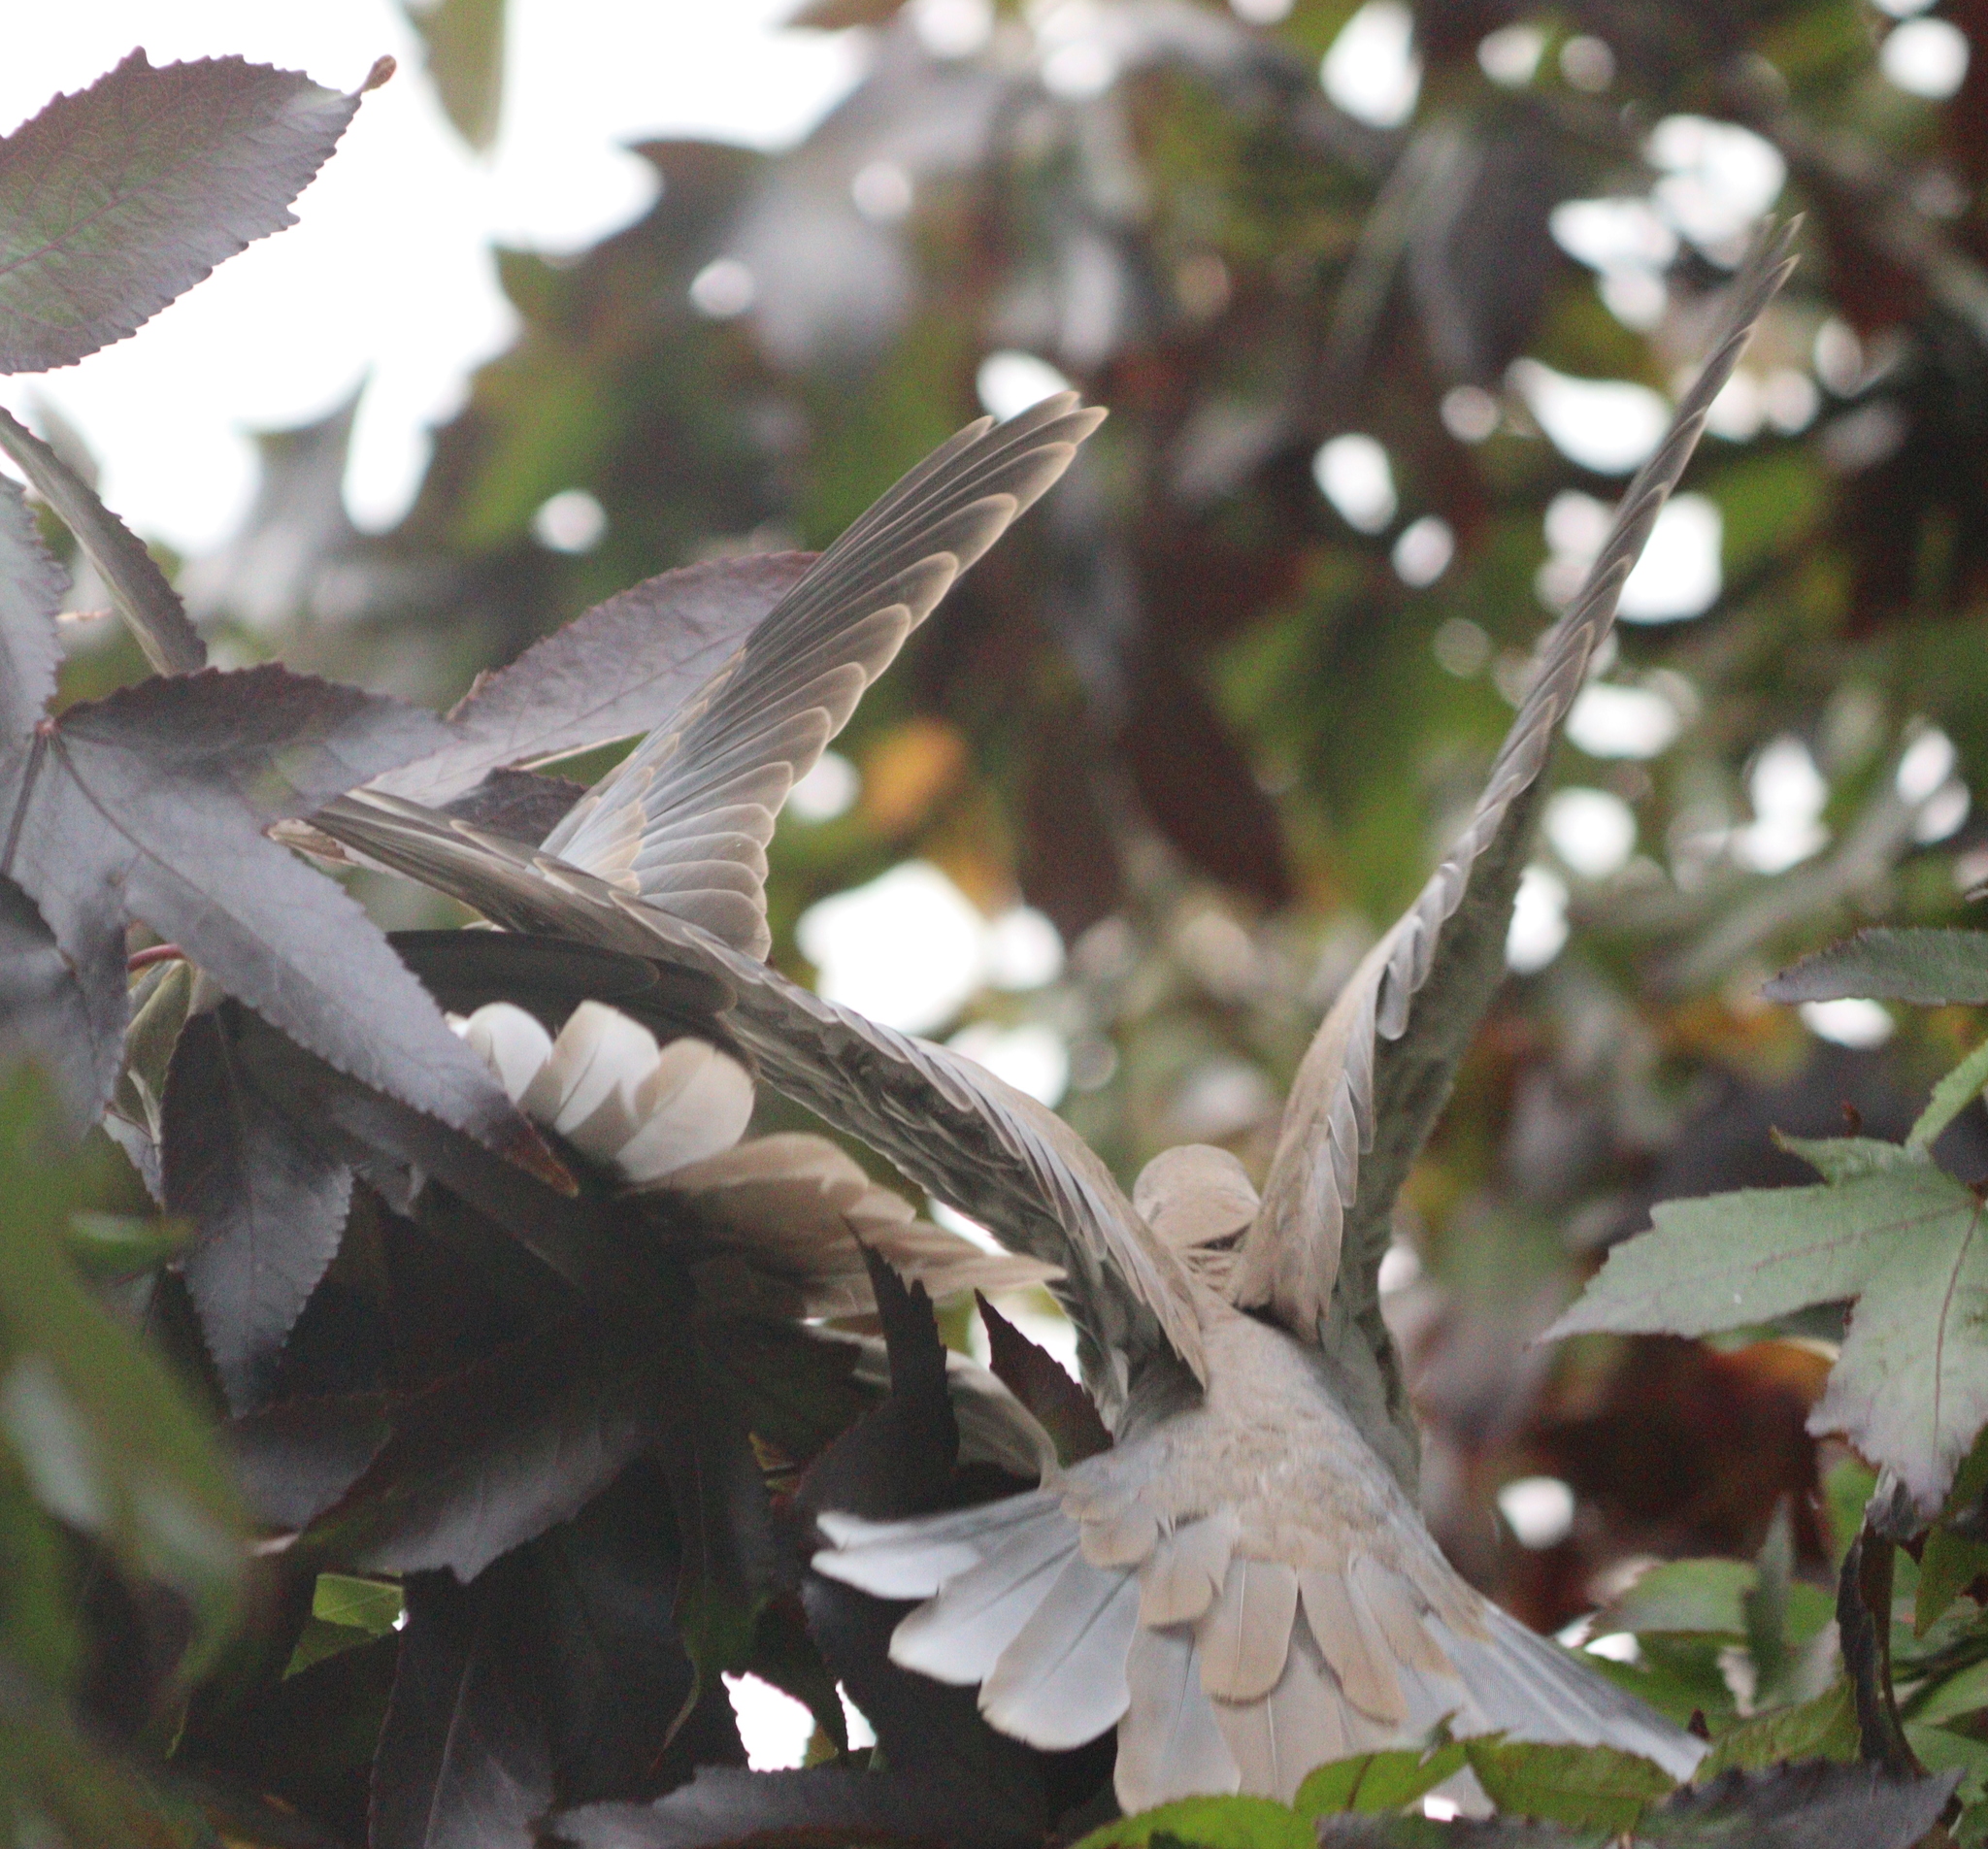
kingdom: Animalia
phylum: Chordata
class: Aves
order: Columbiformes
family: Columbidae
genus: Streptopelia
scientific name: Streptopelia decaocto
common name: Eurasian collared dove
